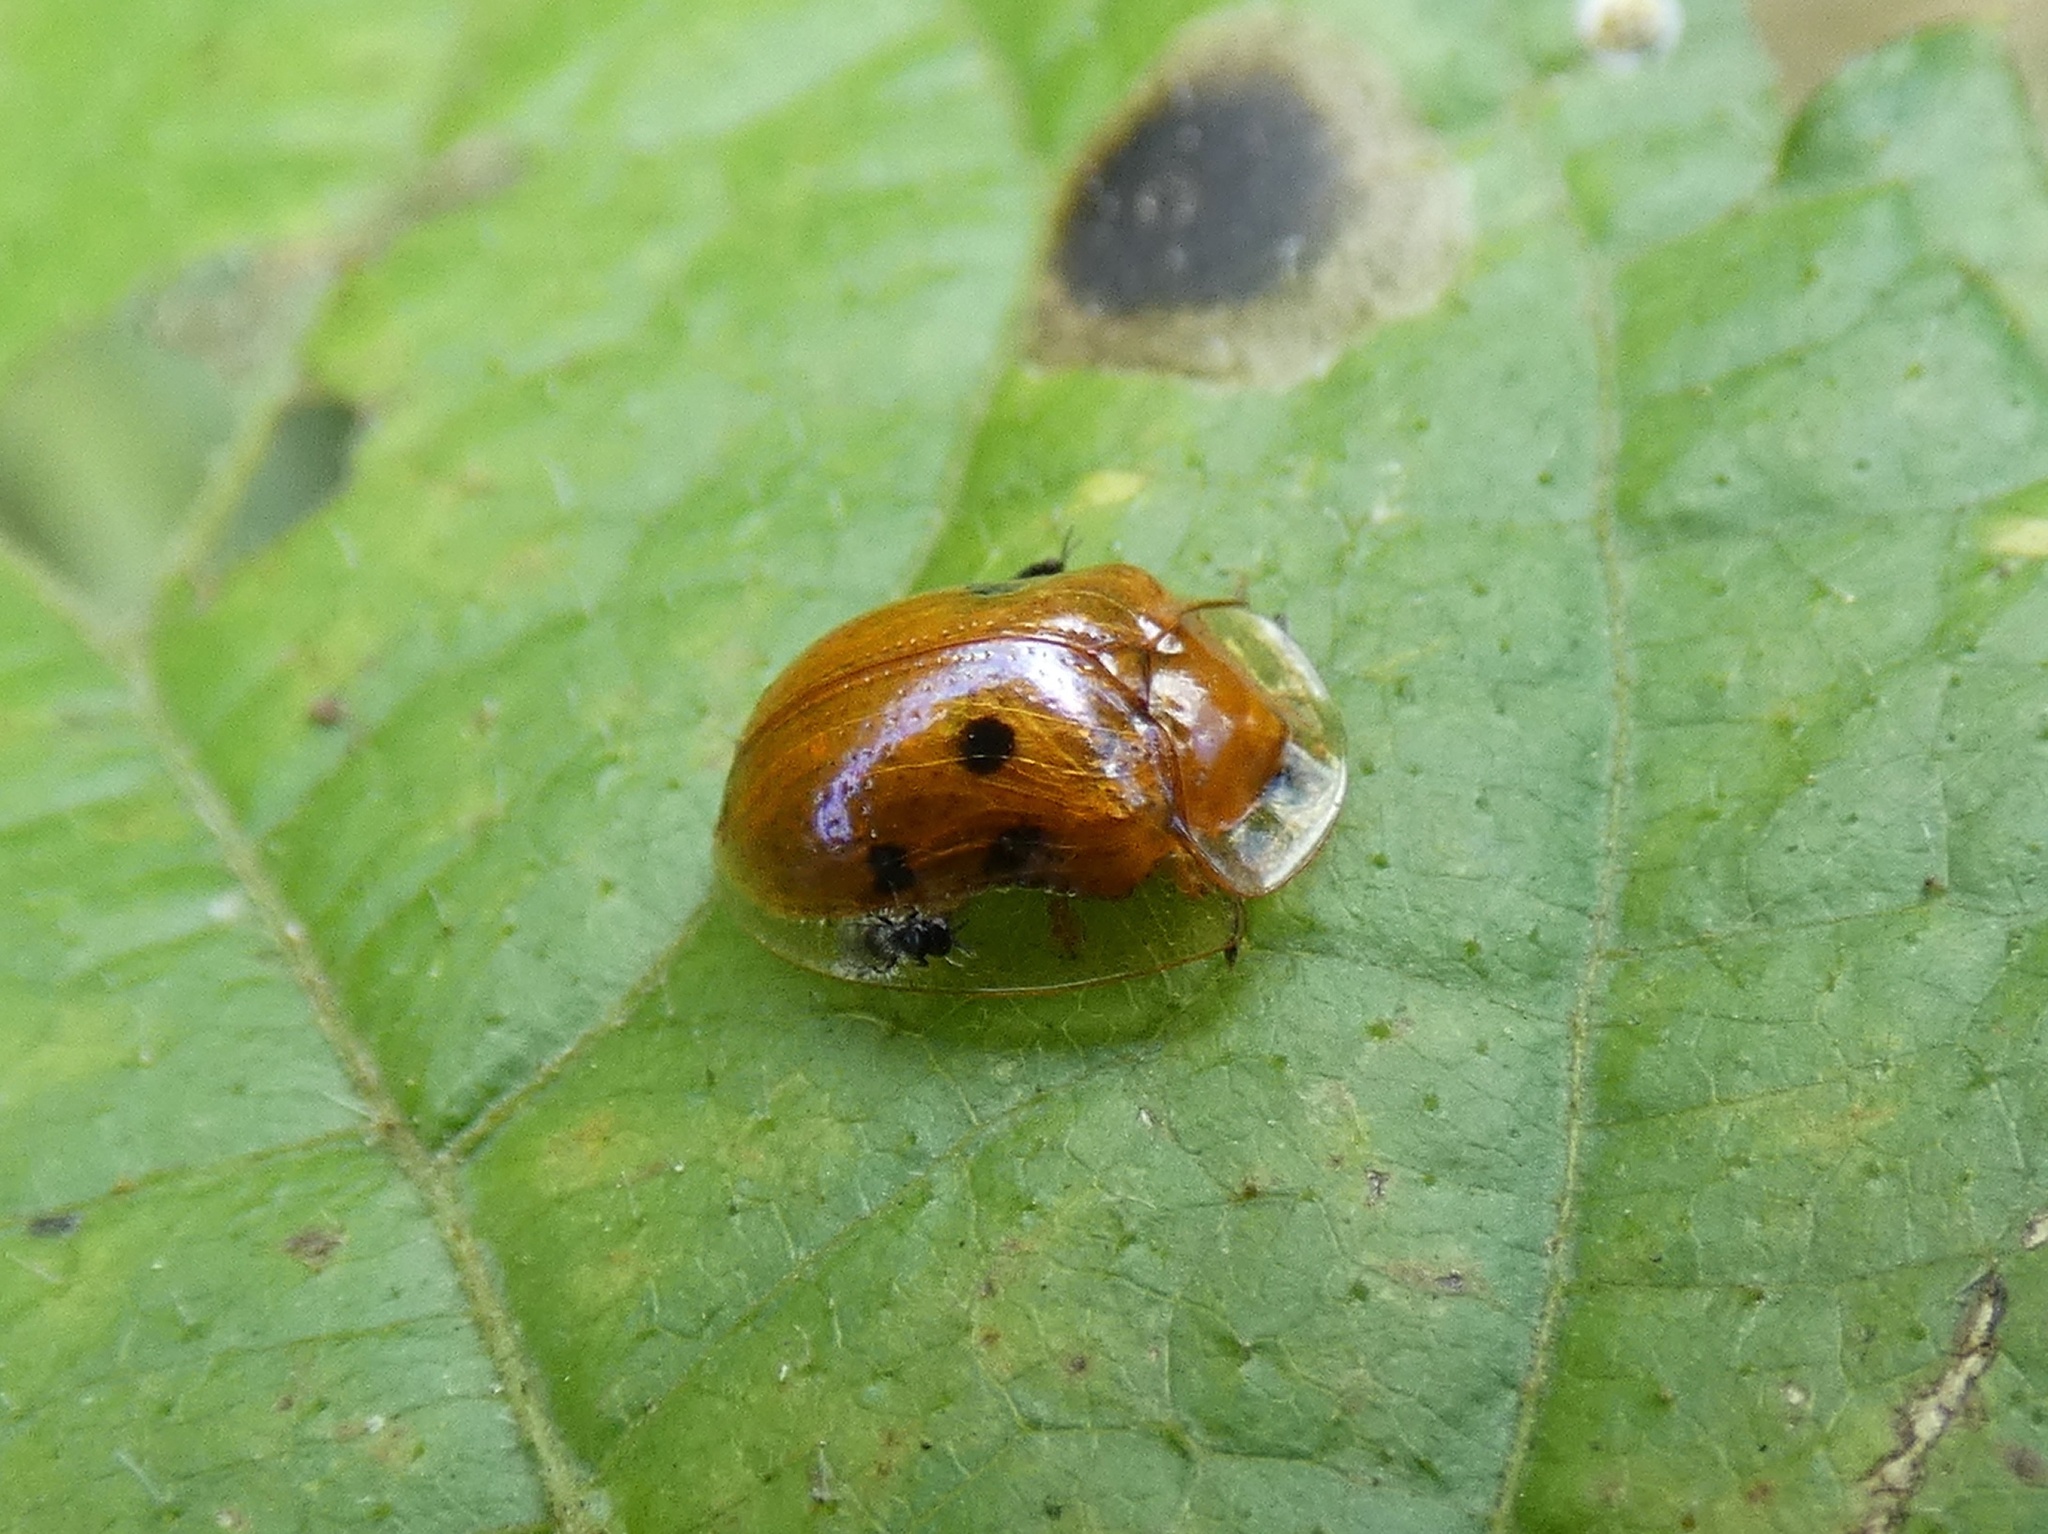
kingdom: Animalia
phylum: Arthropoda
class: Insecta
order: Coleoptera
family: Chrysomelidae
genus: Charidotella
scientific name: Charidotella sexpunctata
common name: Golden tortoise beetle
